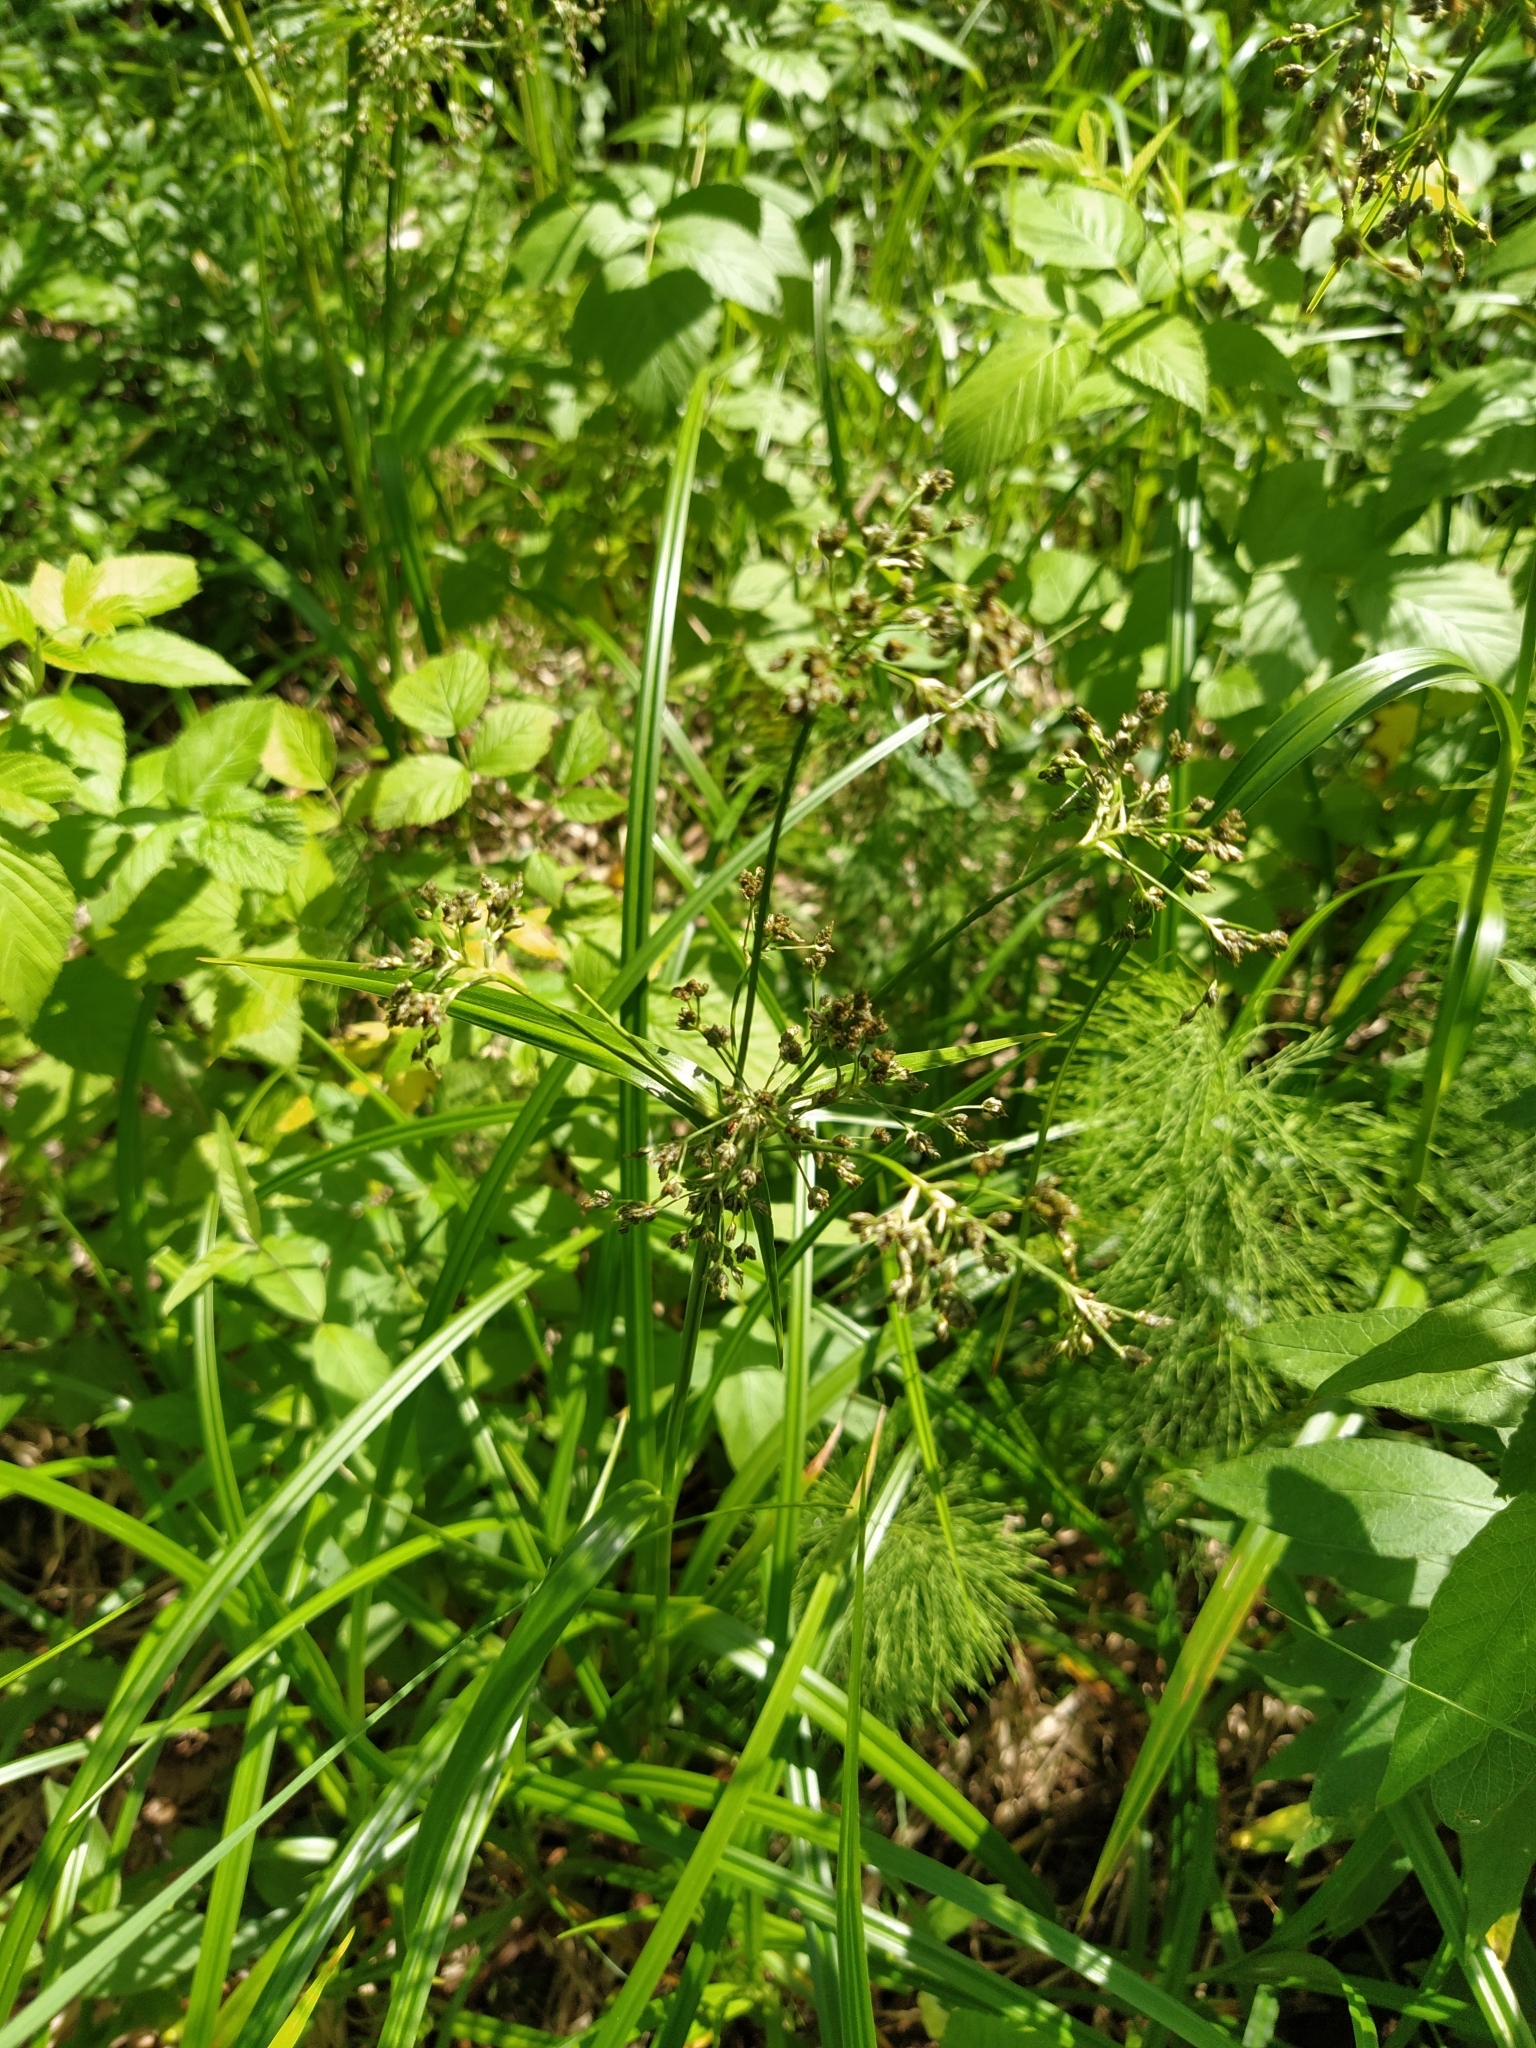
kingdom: Plantae
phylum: Tracheophyta
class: Liliopsida
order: Poales
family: Cyperaceae
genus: Scirpus
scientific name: Scirpus sylvaticus
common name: Wood club-rush
